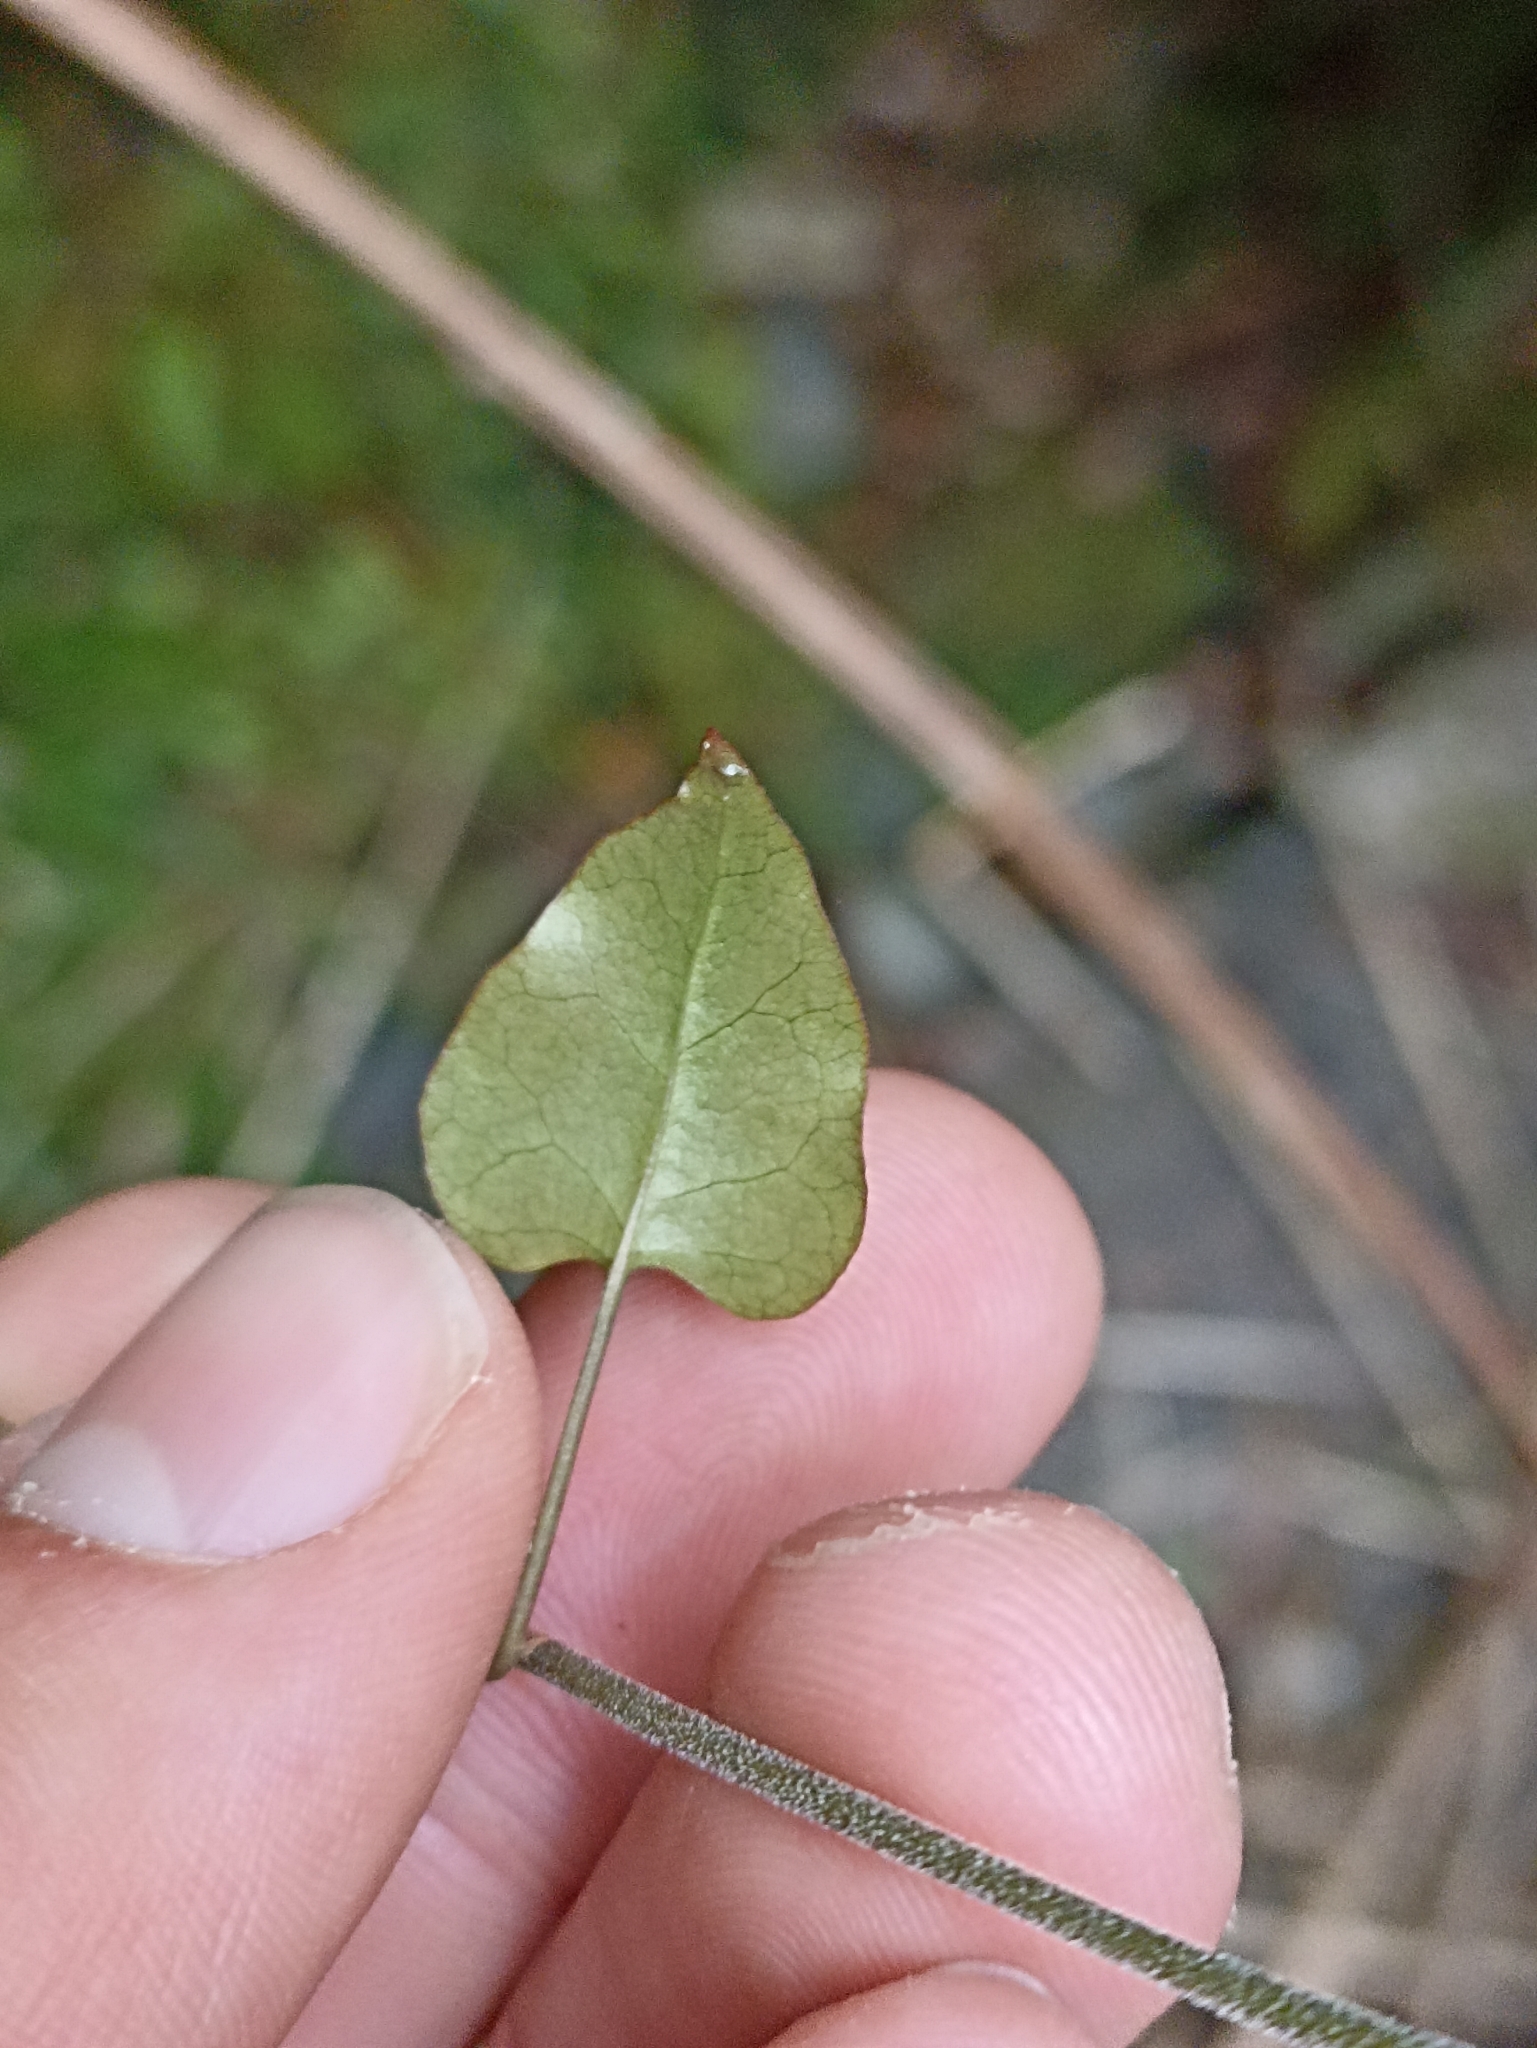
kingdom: Plantae
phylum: Tracheophyta
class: Magnoliopsida
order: Caryophyllales
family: Polygonaceae
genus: Muehlenbeckia
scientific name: Muehlenbeckia australis
